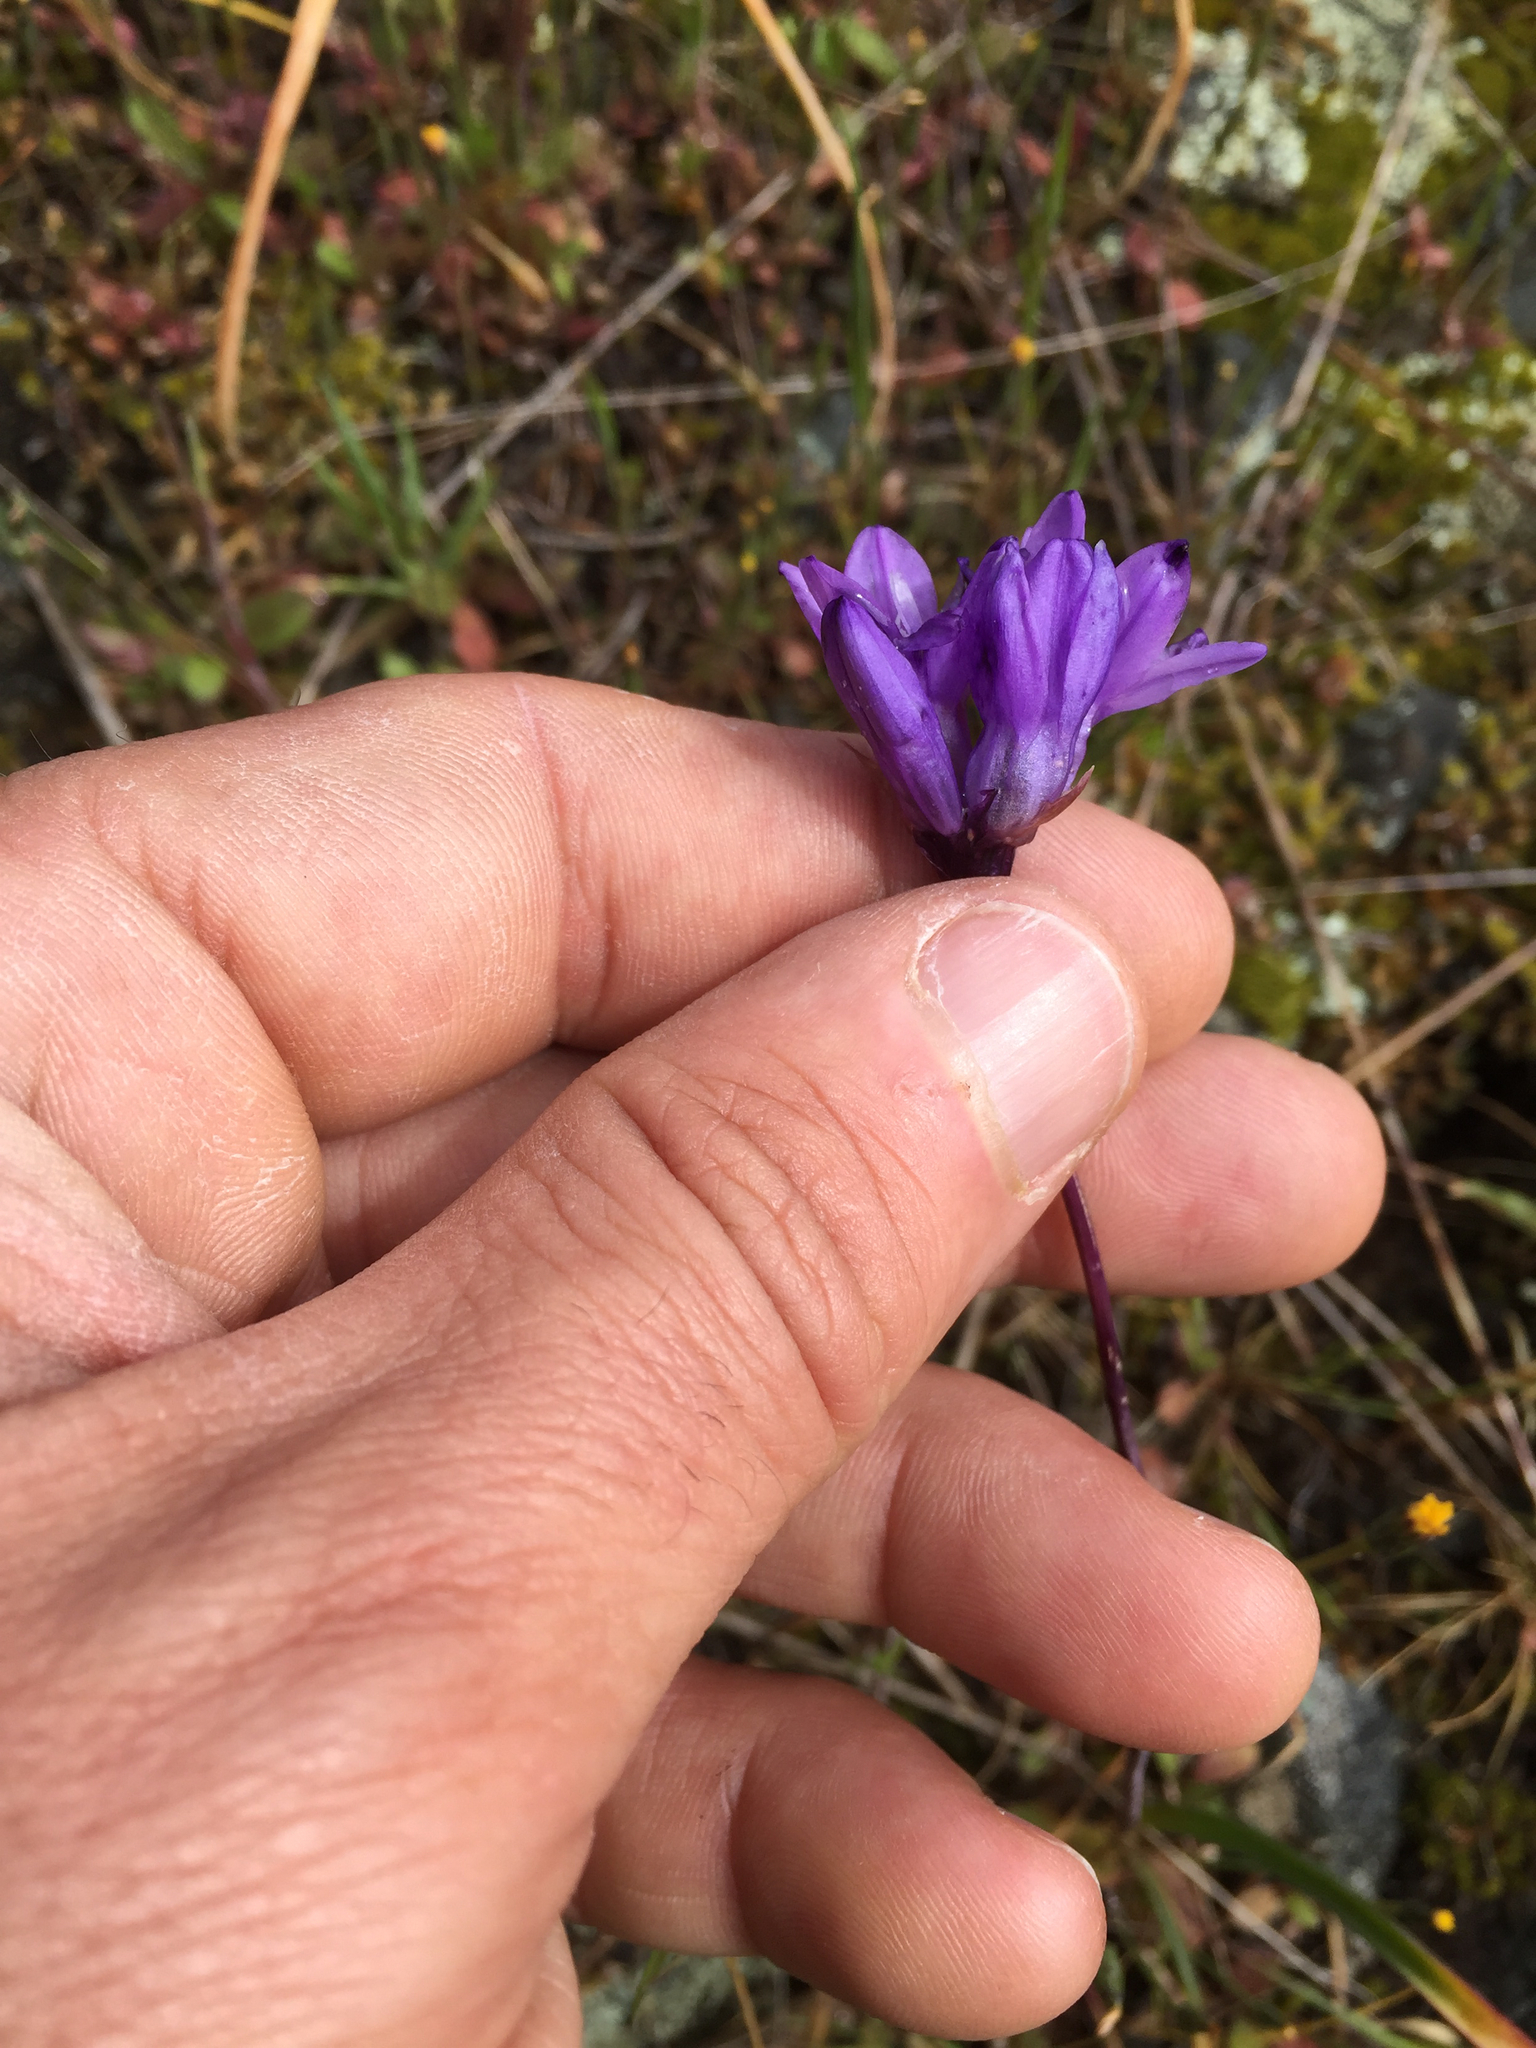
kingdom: Plantae
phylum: Tracheophyta
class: Liliopsida
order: Asparagales
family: Asparagaceae
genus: Dipterostemon
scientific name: Dipterostemon capitatus
